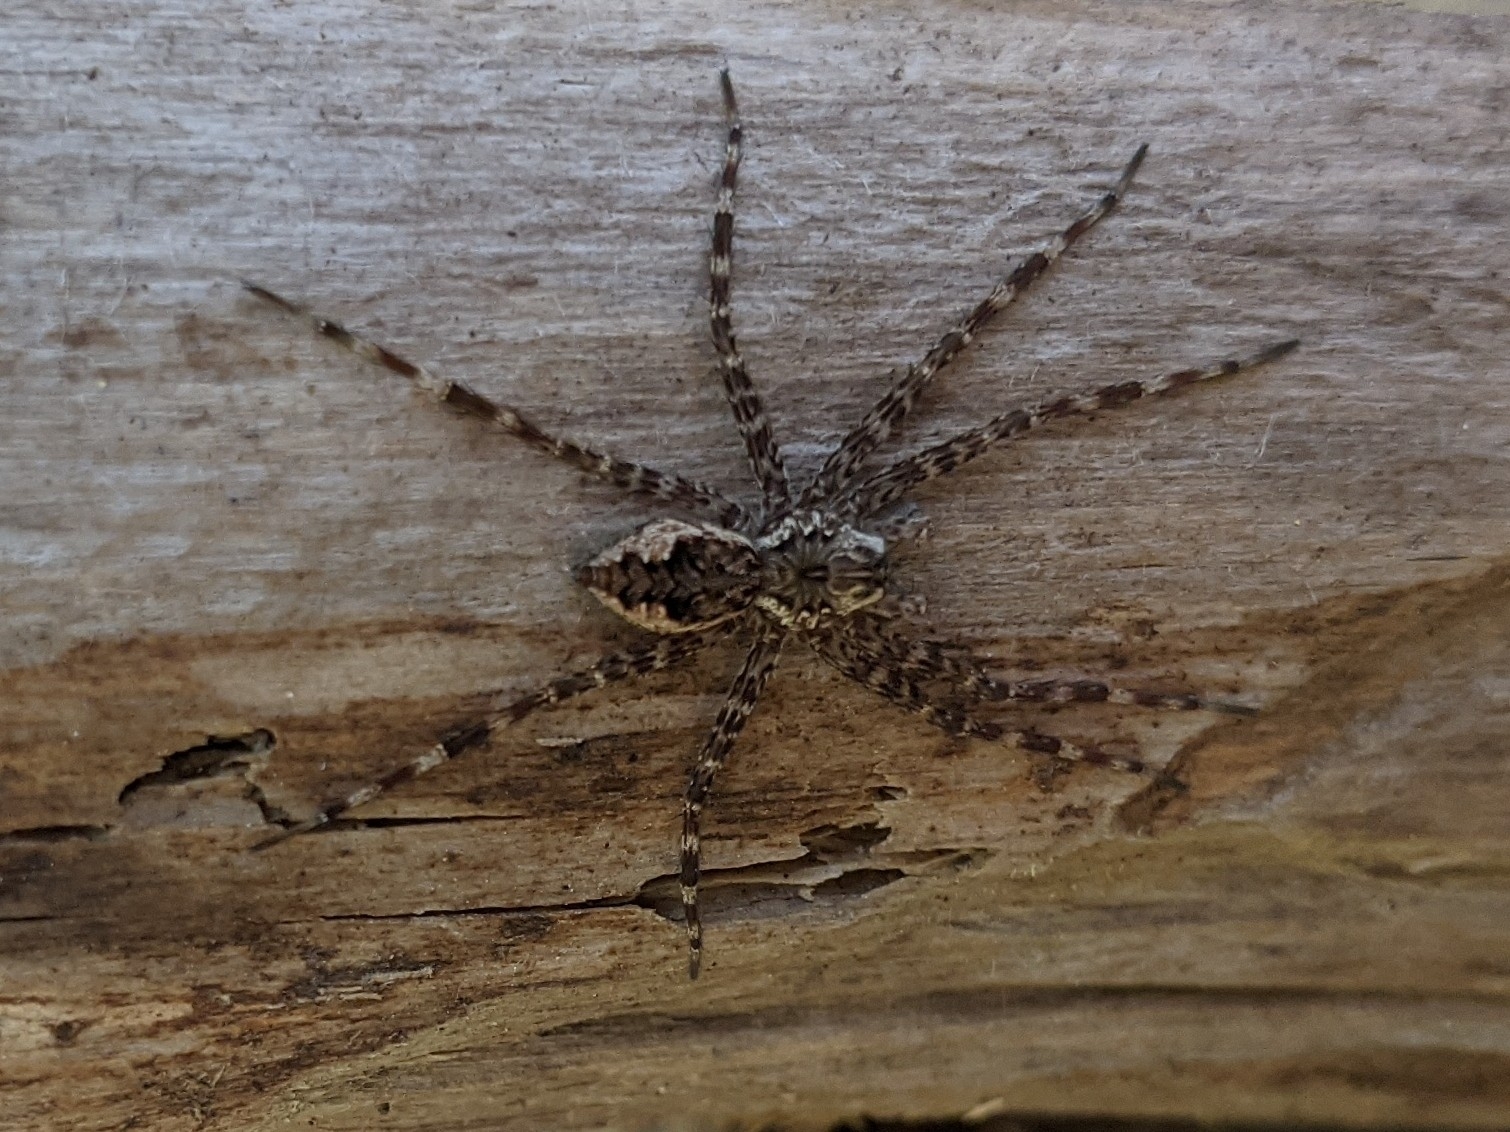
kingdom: Animalia
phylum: Arthropoda
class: Arachnida
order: Araneae
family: Pisauridae
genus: Dolomedes
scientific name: Dolomedes tenebrosus
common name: Dark fishing spider
